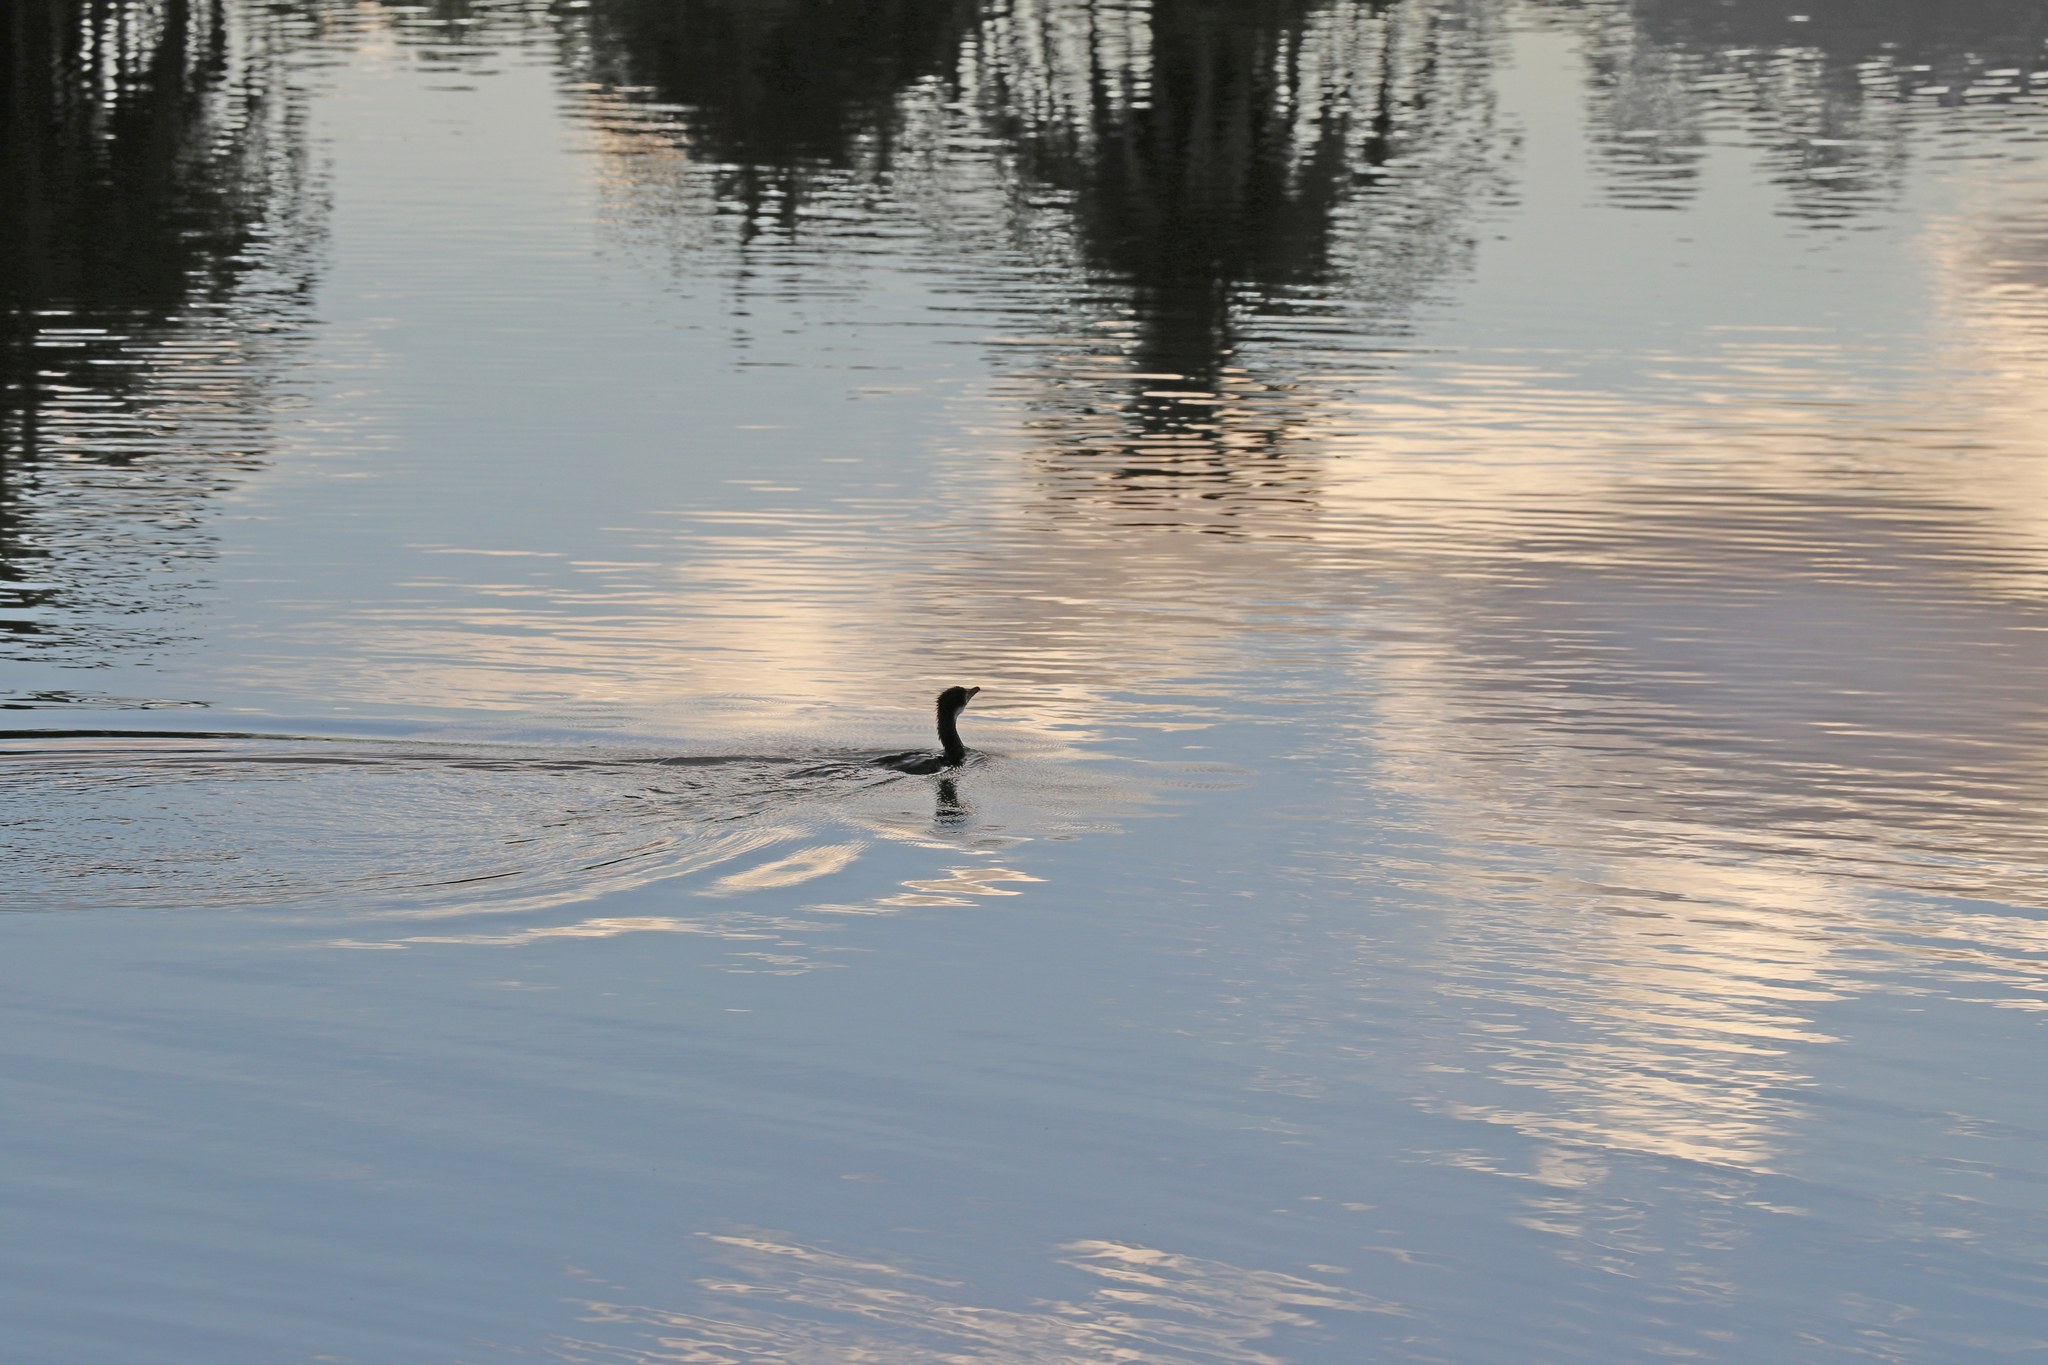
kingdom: Animalia
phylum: Chordata
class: Aves
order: Suliformes
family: Phalacrocoracidae
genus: Microcarbo
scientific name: Microcarbo melanoleucos
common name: Little pied cormorant
